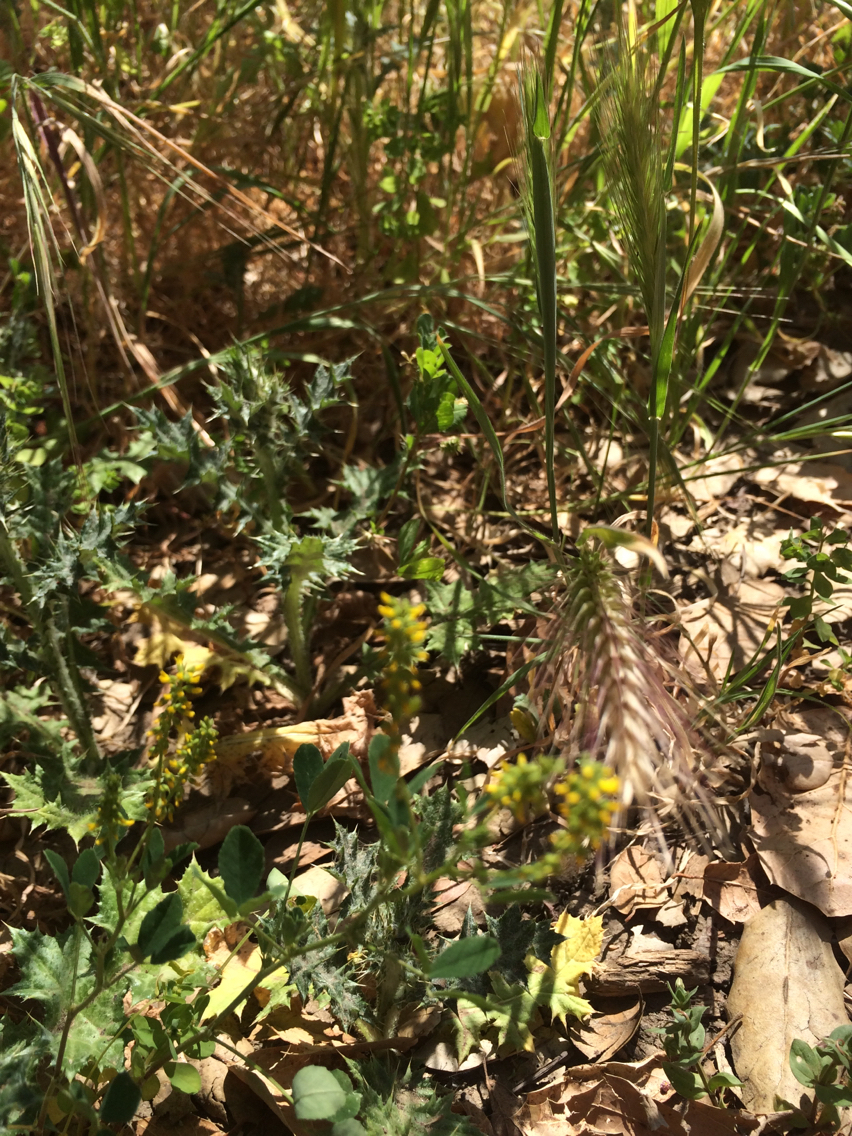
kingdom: Plantae
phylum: Tracheophyta
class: Magnoliopsida
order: Fabales
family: Fabaceae
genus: Melilotus
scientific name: Melilotus indicus
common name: Small melilot
